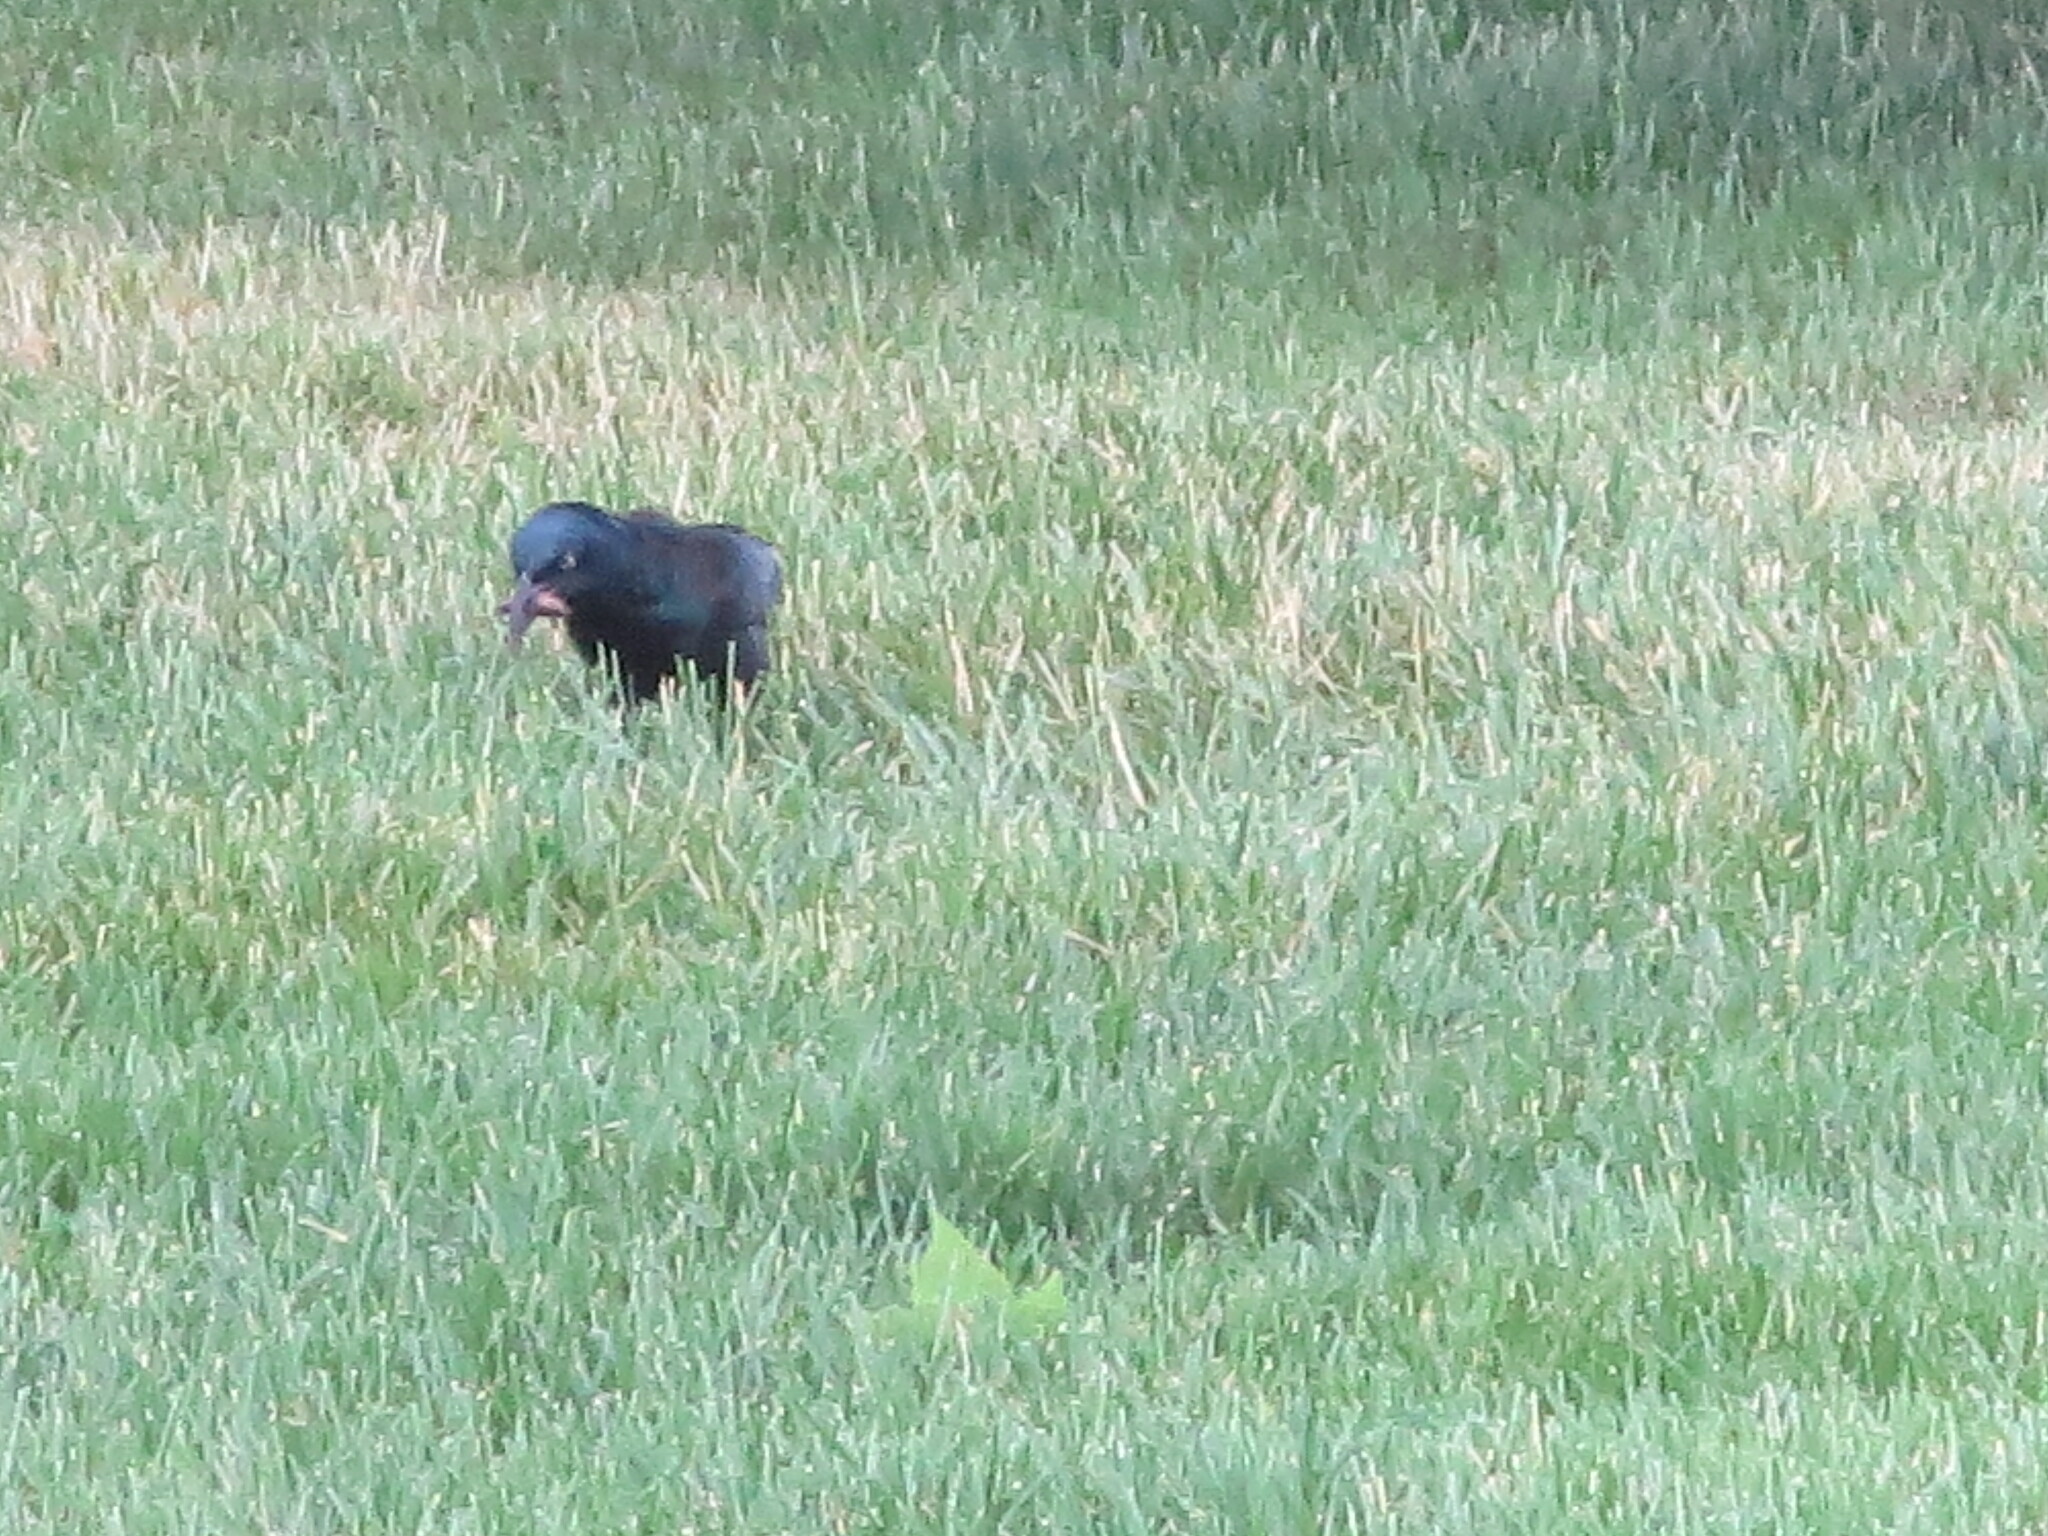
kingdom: Animalia
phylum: Chordata
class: Aves
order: Passeriformes
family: Icteridae
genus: Quiscalus
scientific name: Quiscalus quiscula
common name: Common grackle
